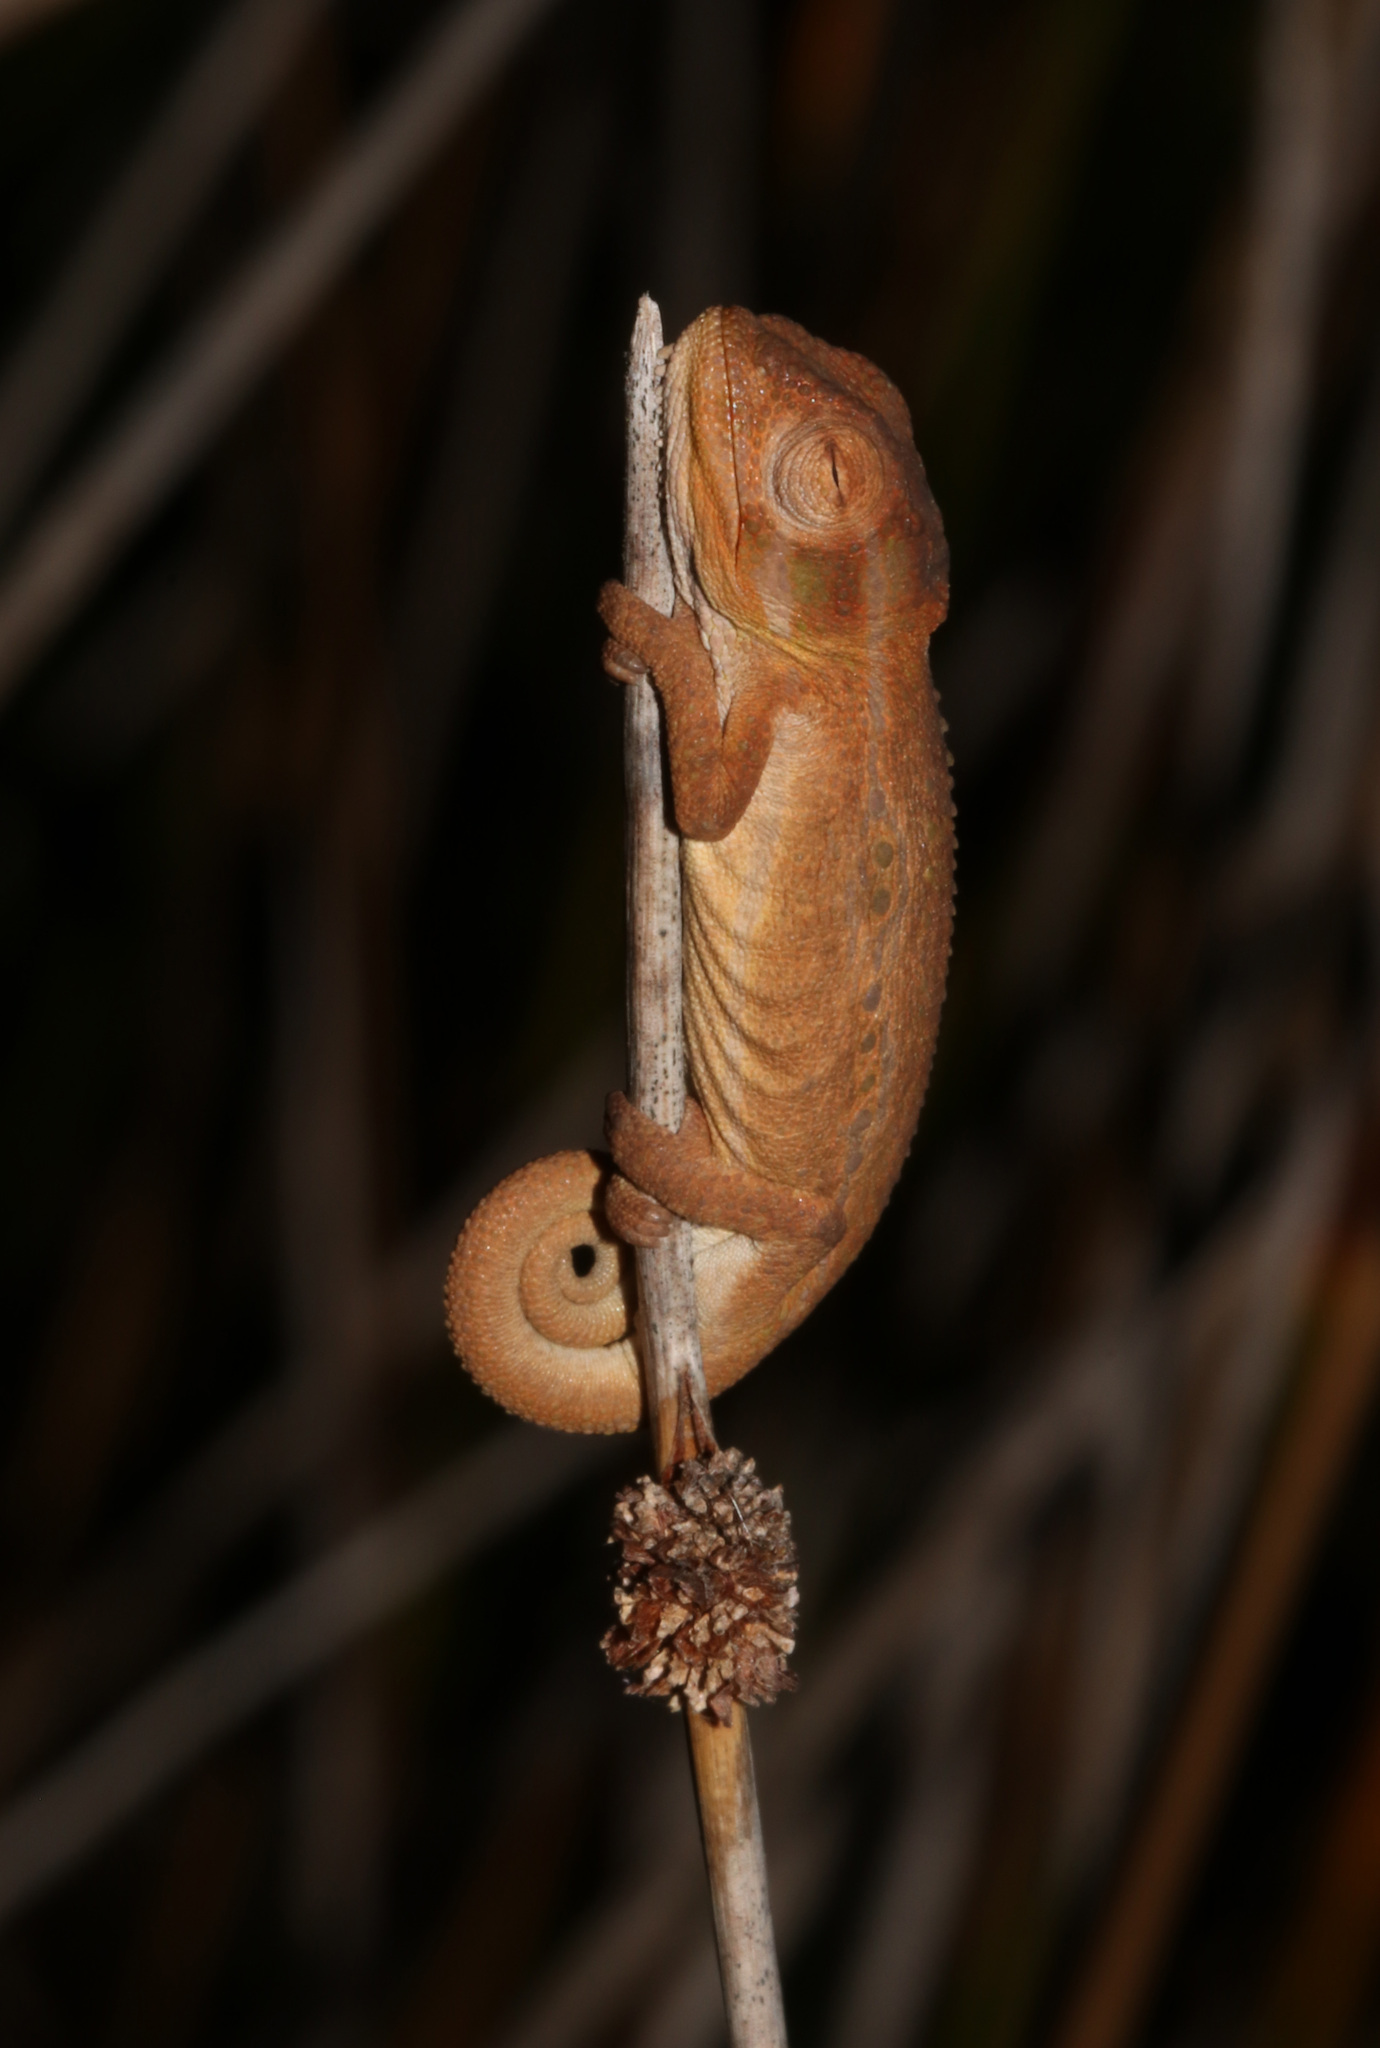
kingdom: Animalia
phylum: Chordata
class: Squamata
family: Chamaeleonidae
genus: Bradypodion
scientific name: Bradypodion pumilum
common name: Cape dwarf chameleon
